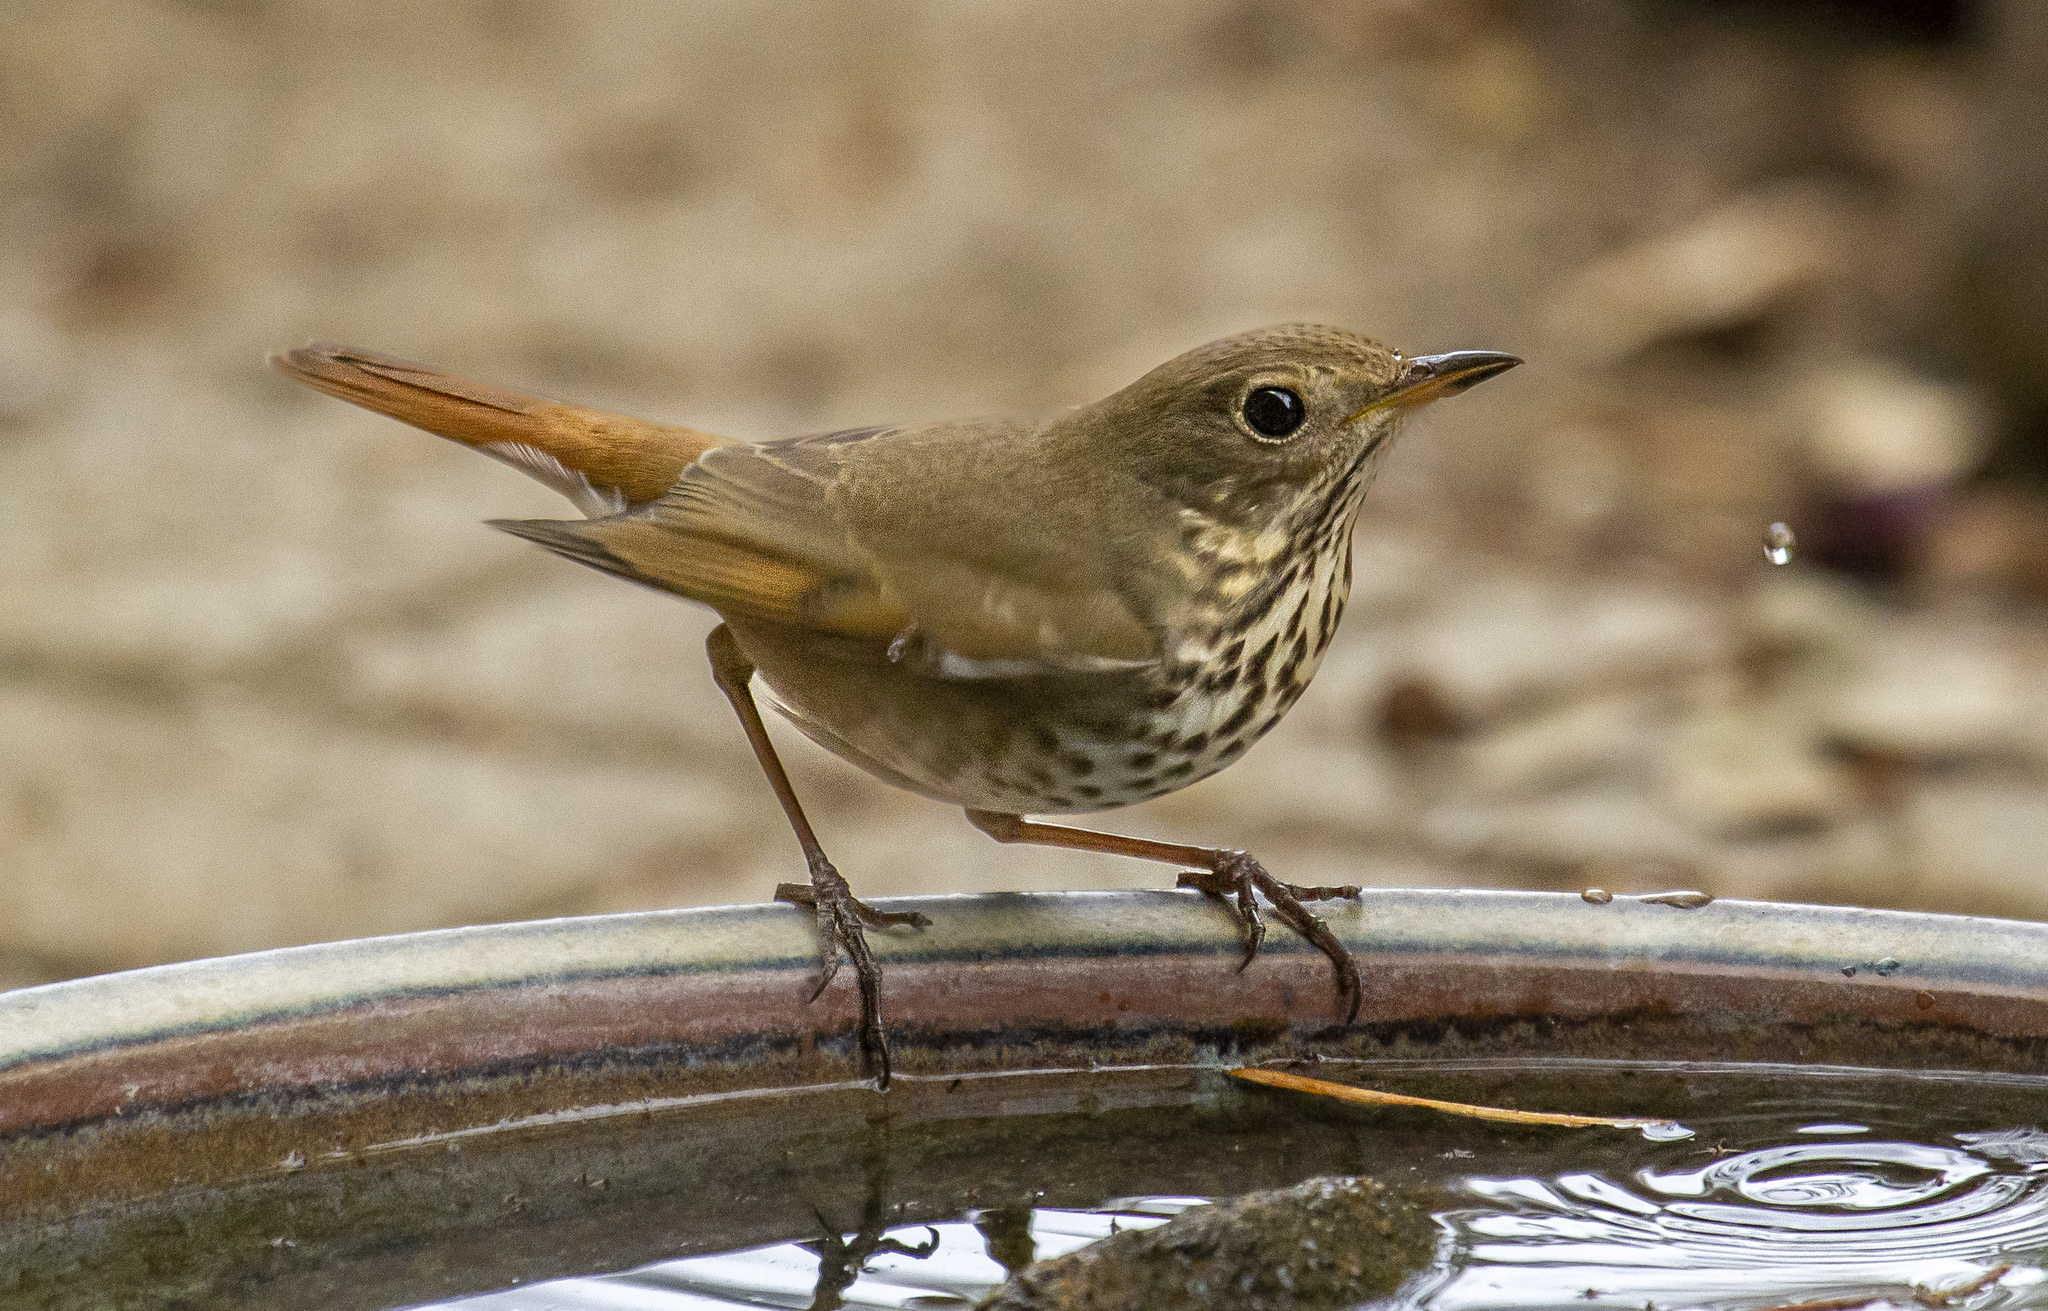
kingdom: Animalia
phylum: Chordata
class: Aves
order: Passeriformes
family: Turdidae
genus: Catharus
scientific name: Catharus guttatus
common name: Hermit thrush
